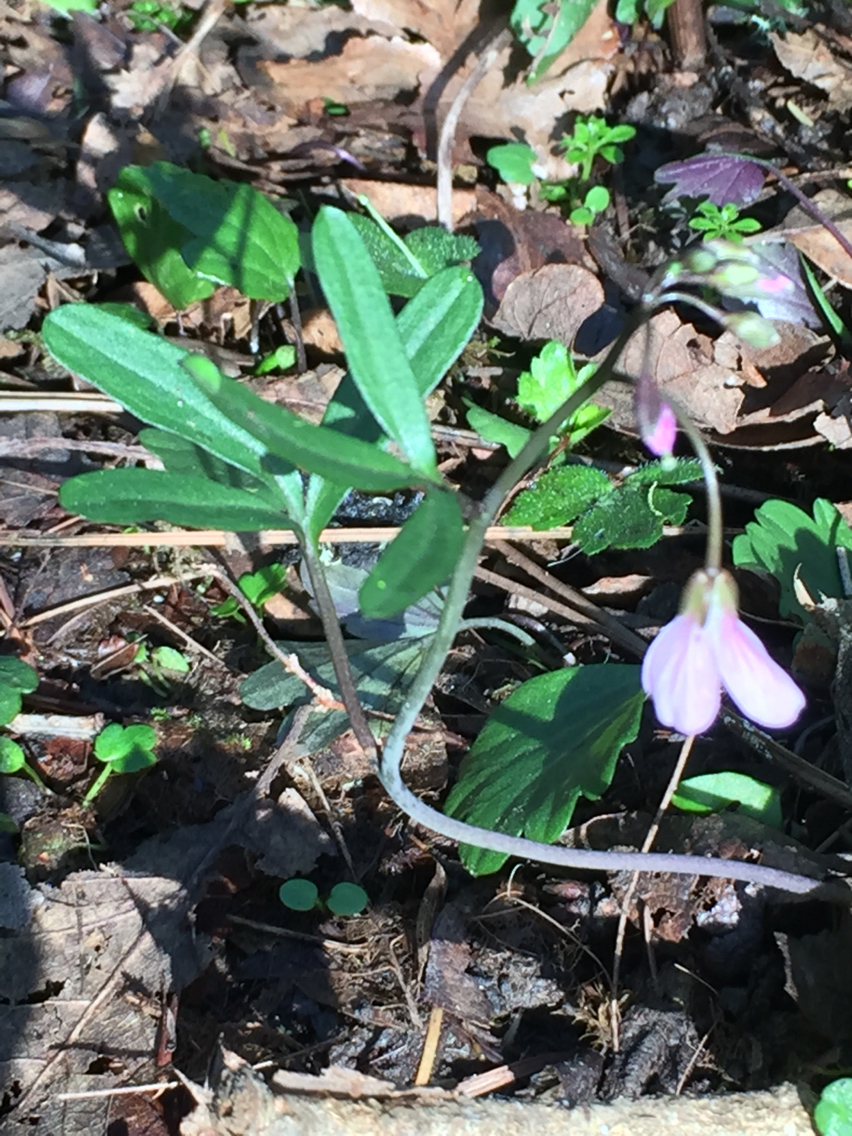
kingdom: Plantae
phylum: Tracheophyta
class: Magnoliopsida
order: Brassicales
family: Brassicaceae
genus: Cardamine
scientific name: Cardamine nuttallii
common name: Nuttall's toothwort
